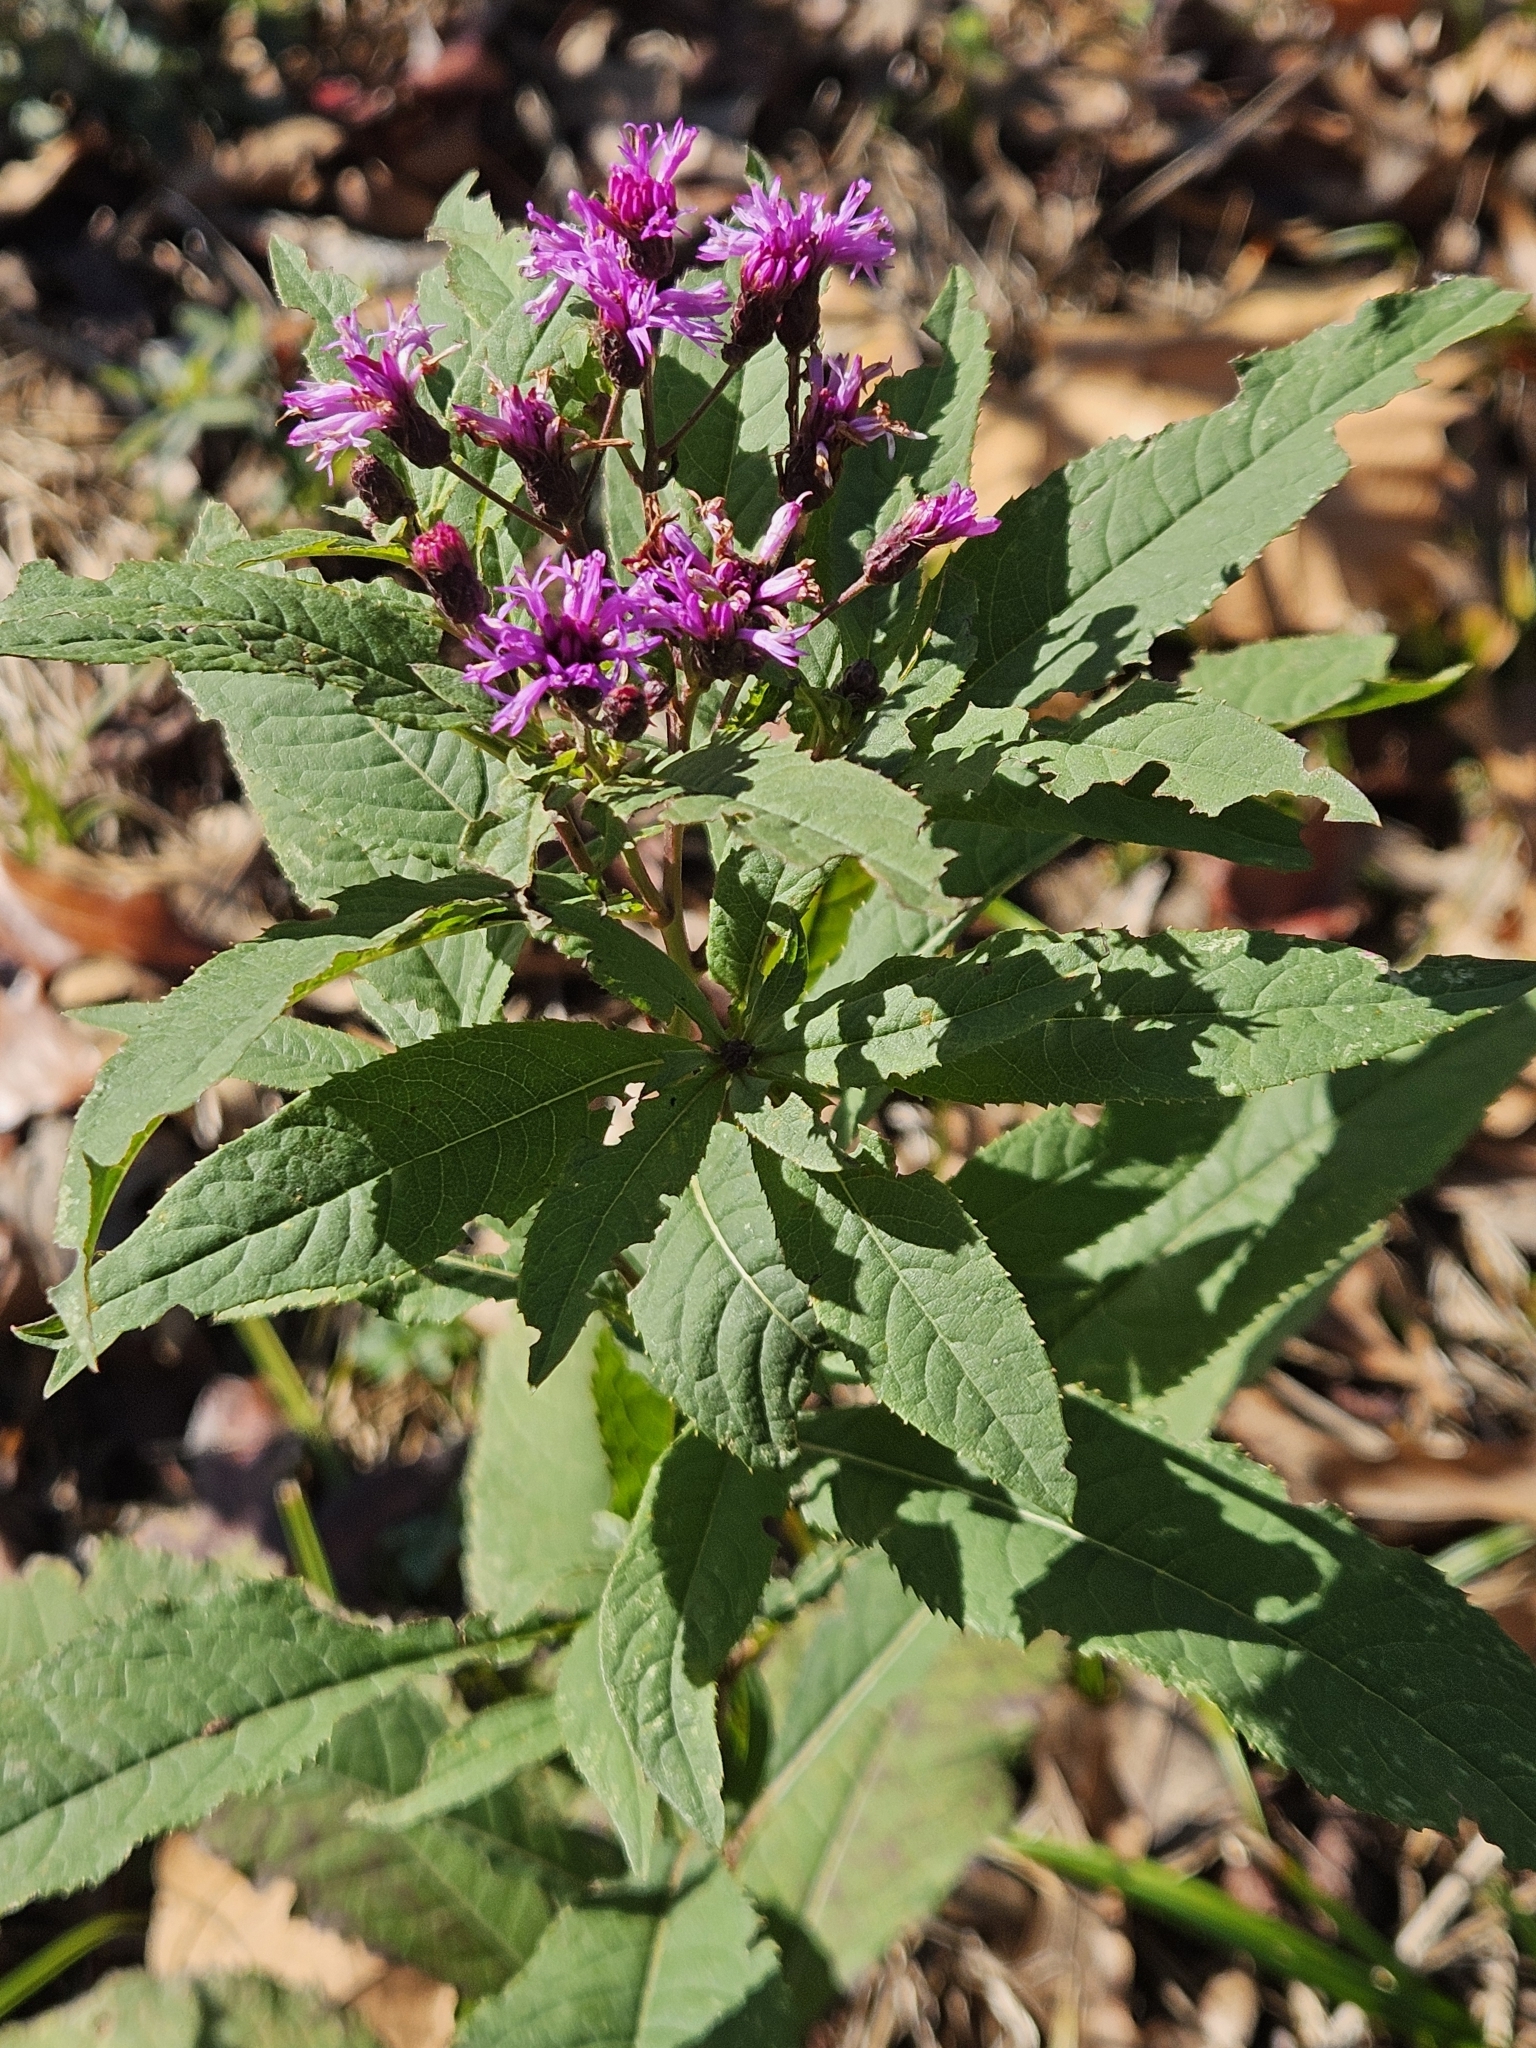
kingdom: Plantae
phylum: Tracheophyta
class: Magnoliopsida
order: Asterales
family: Asteraceae
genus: Vernonia
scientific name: Vernonia gigantea
